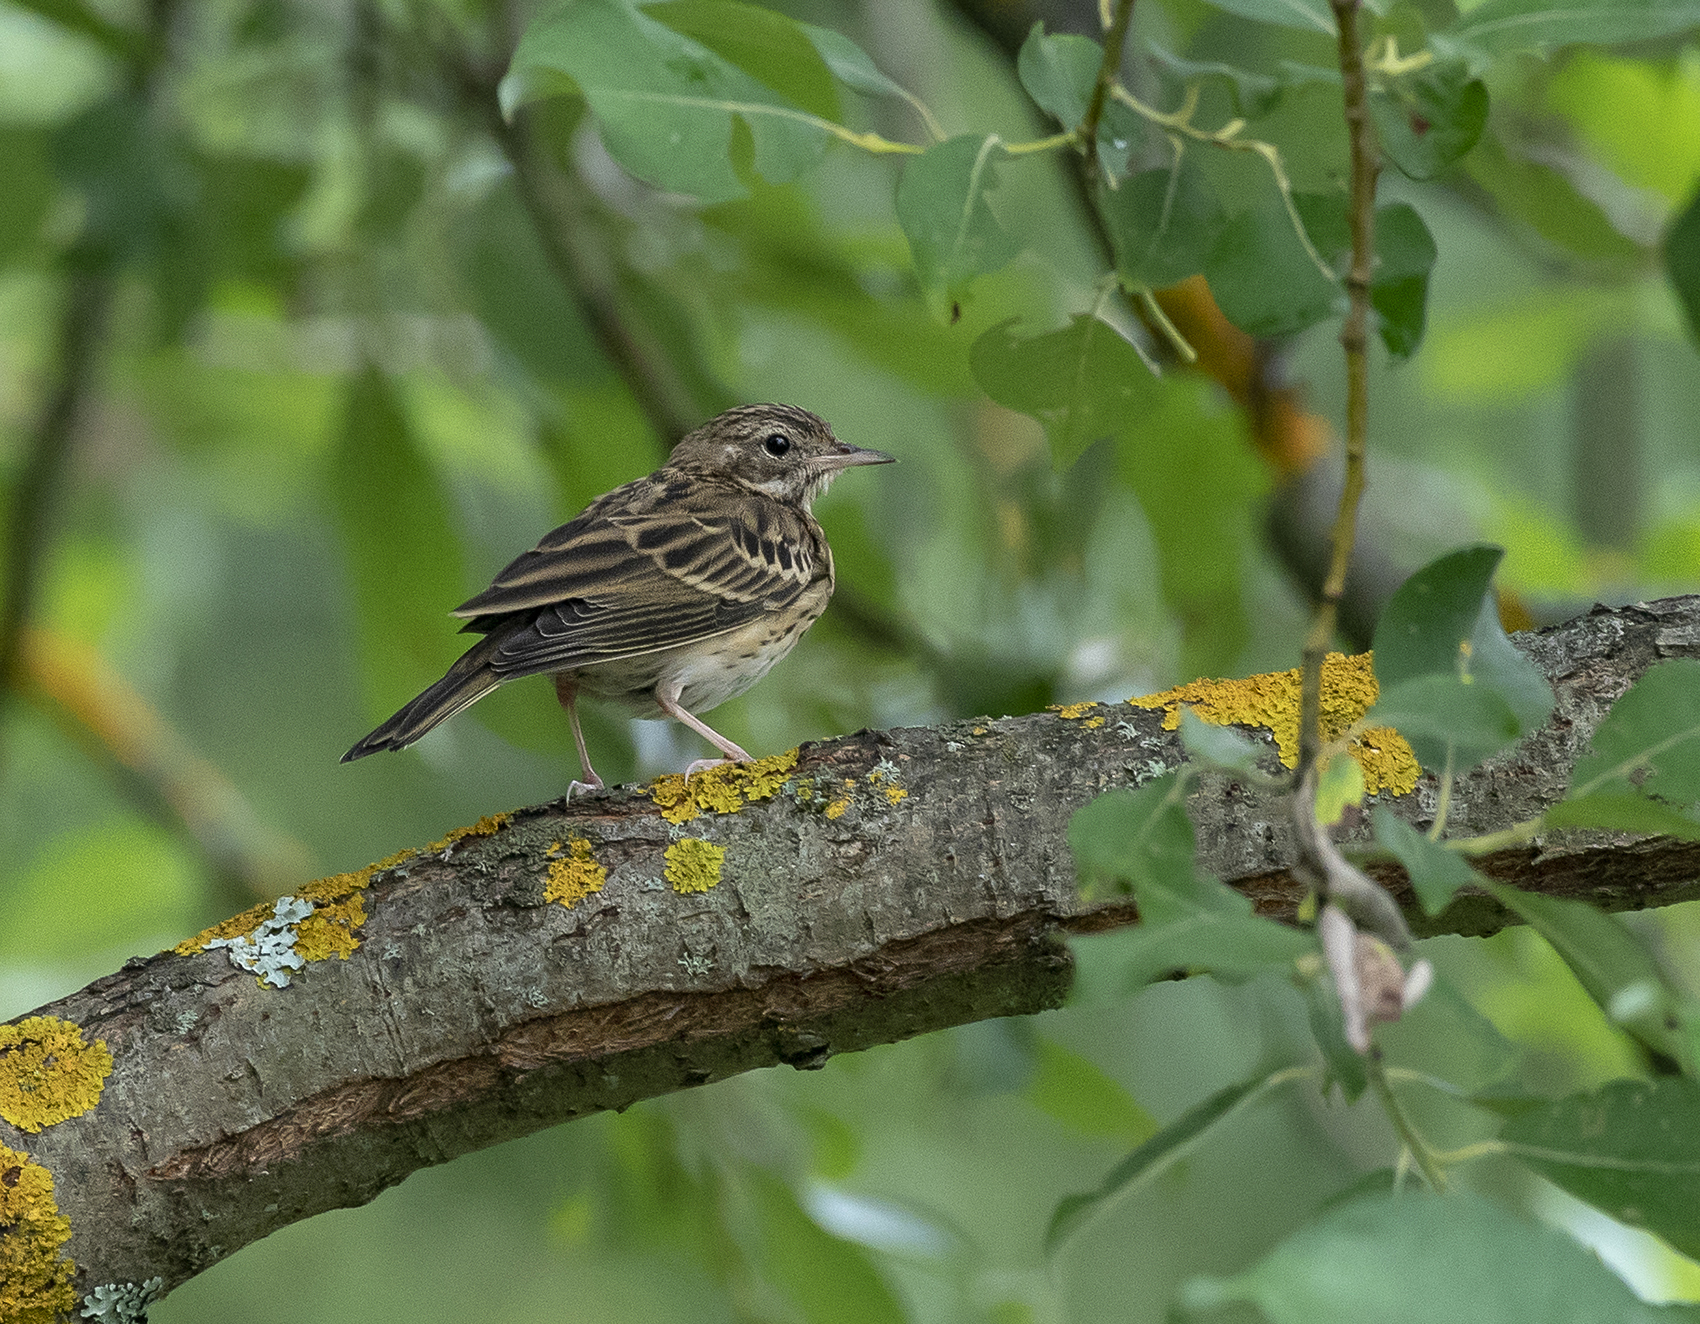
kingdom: Animalia
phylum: Chordata
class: Aves
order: Passeriformes
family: Motacillidae
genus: Anthus
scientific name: Anthus trivialis
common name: Tree pipit
